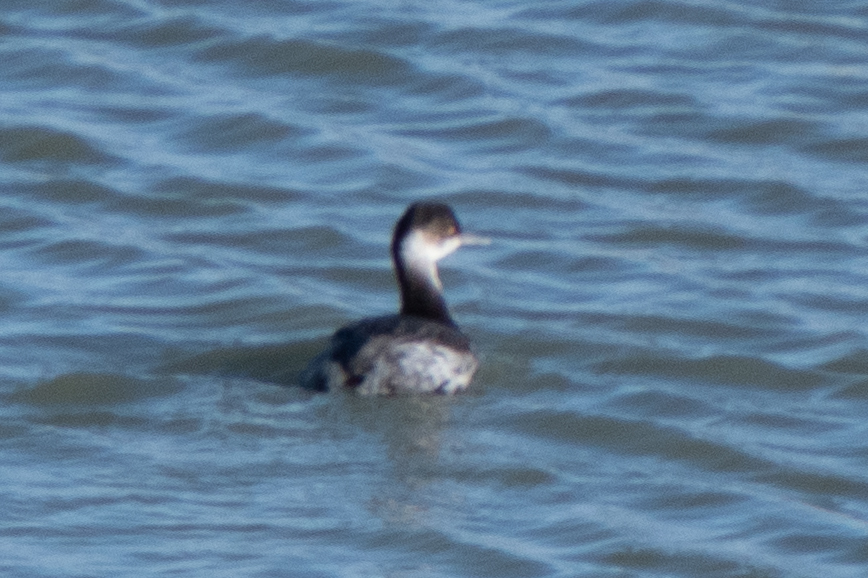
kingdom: Animalia
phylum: Chordata
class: Aves
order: Podicipediformes
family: Podicipedidae
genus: Podiceps
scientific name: Podiceps nigricollis
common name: Black-necked grebe
